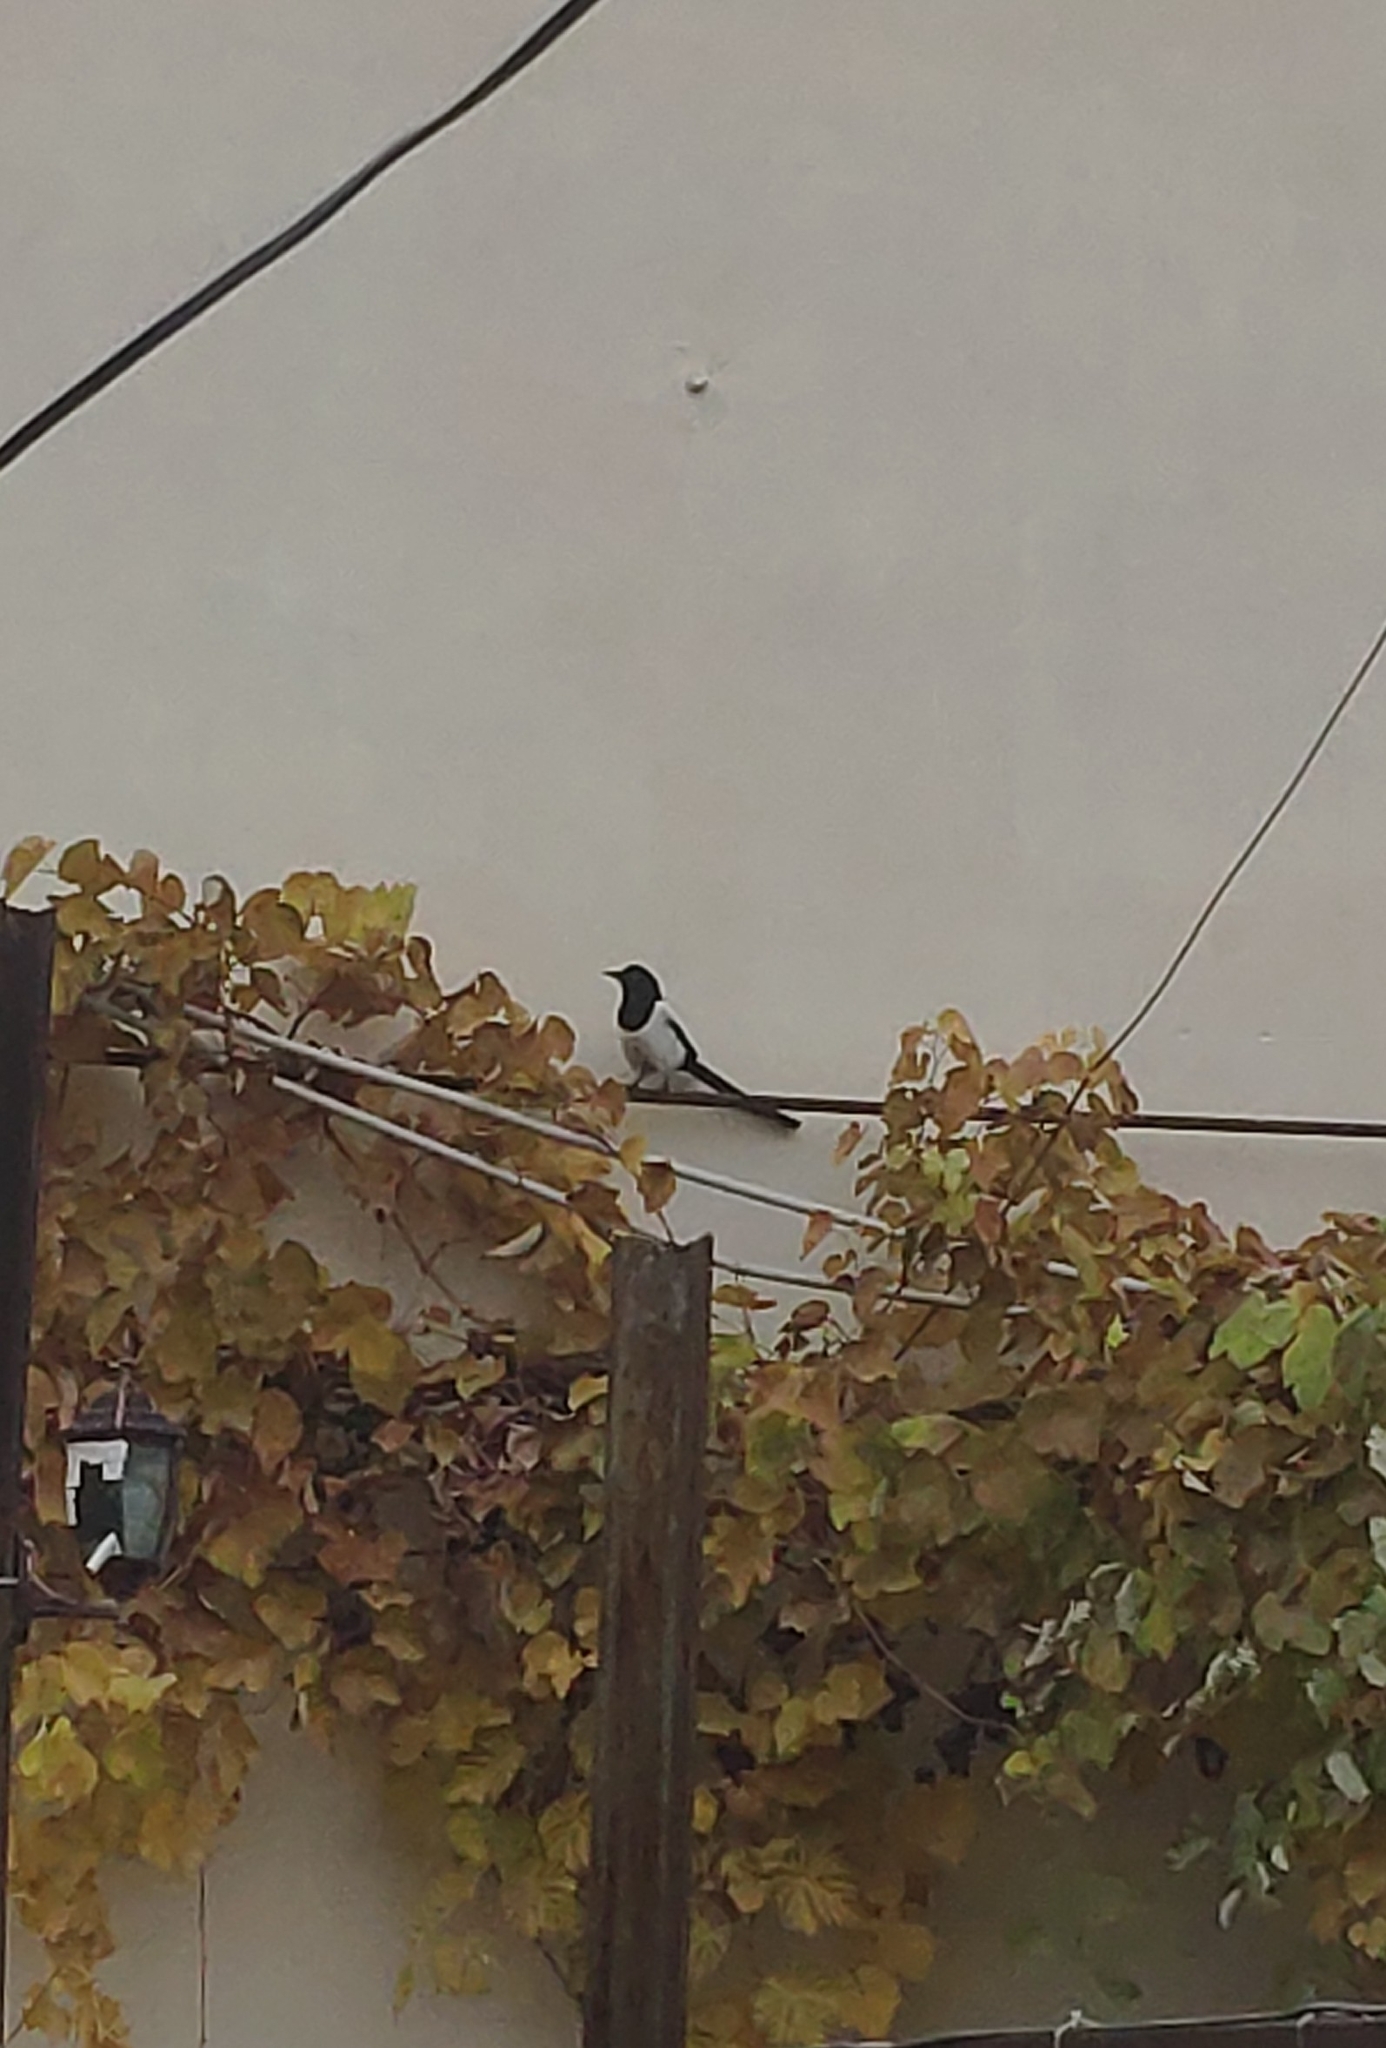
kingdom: Animalia
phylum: Chordata
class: Aves
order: Passeriformes
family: Corvidae
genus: Pica
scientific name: Pica pica
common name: Eurasian magpie
